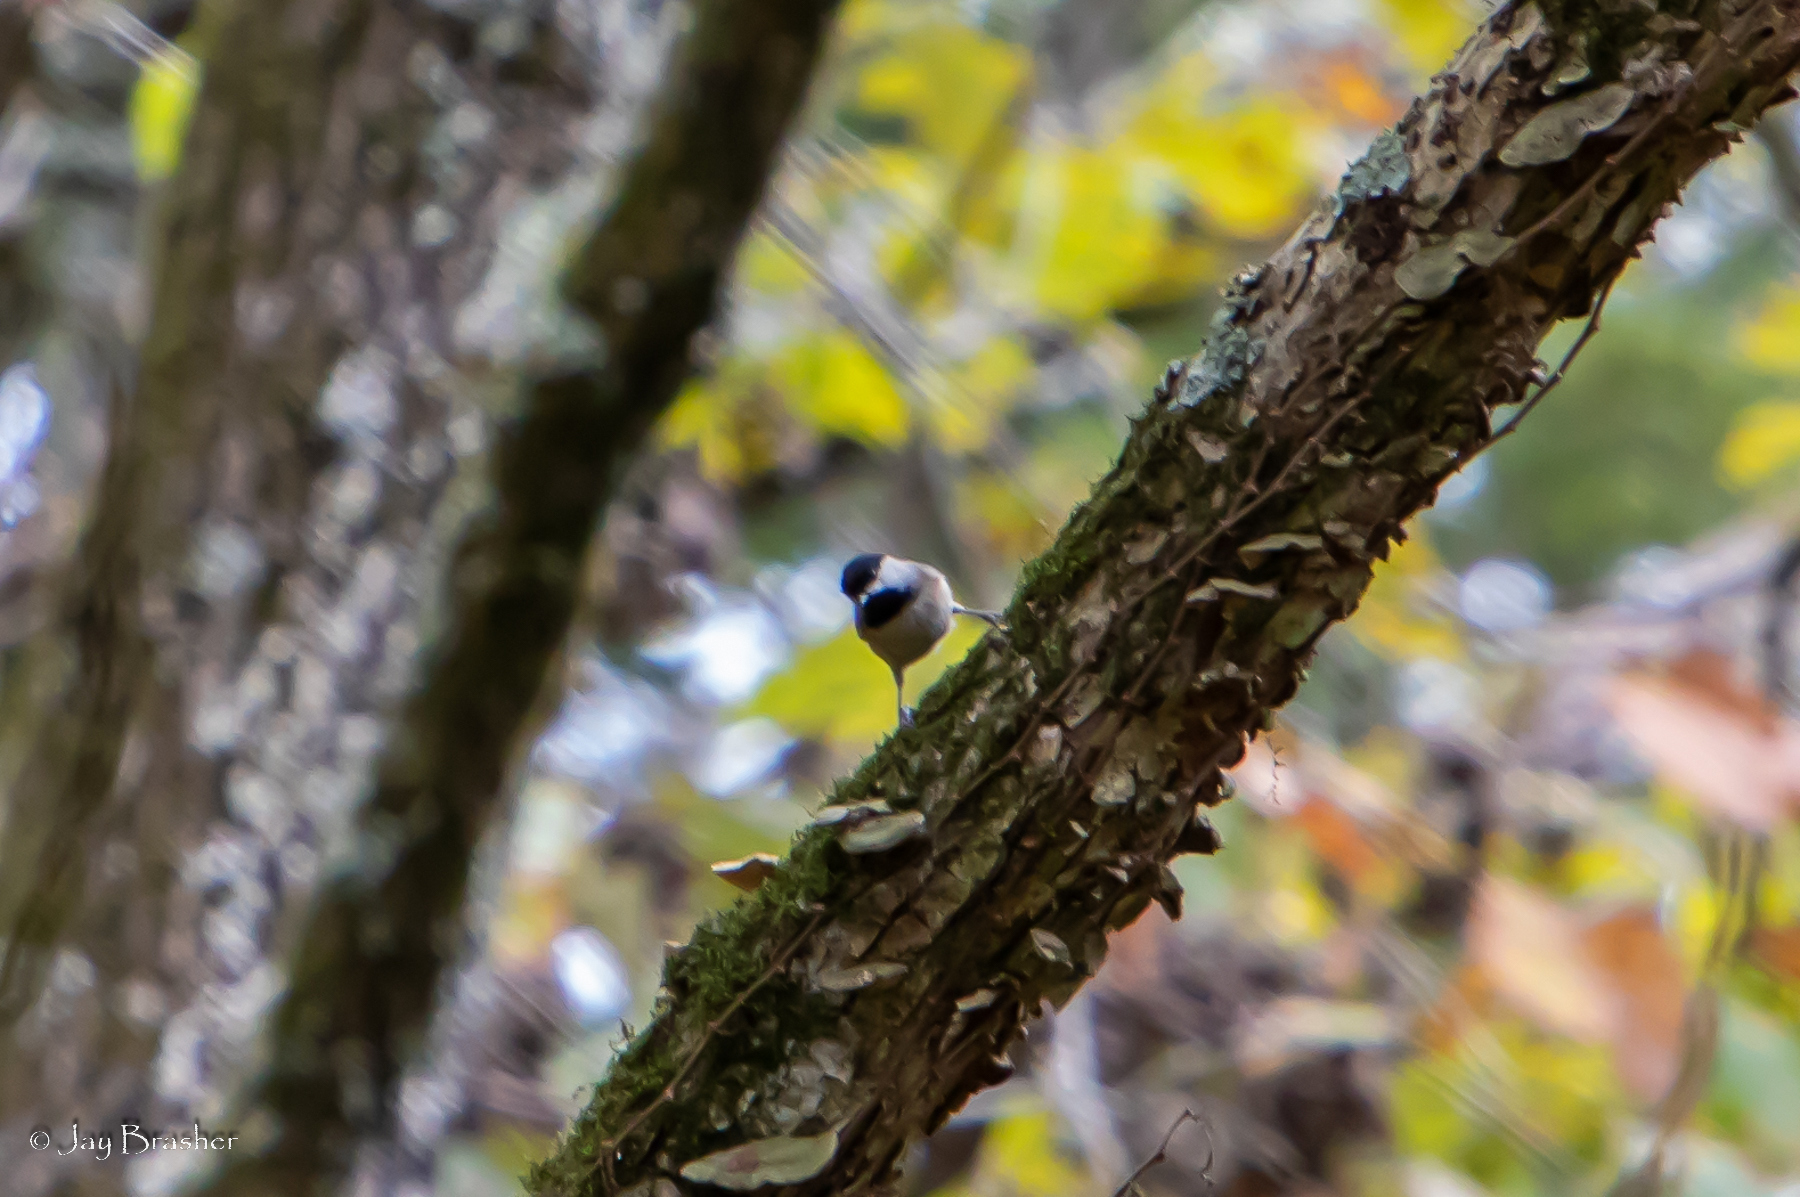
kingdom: Animalia
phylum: Chordata
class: Aves
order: Passeriformes
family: Paridae
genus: Poecile
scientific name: Poecile carolinensis
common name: Carolina chickadee
